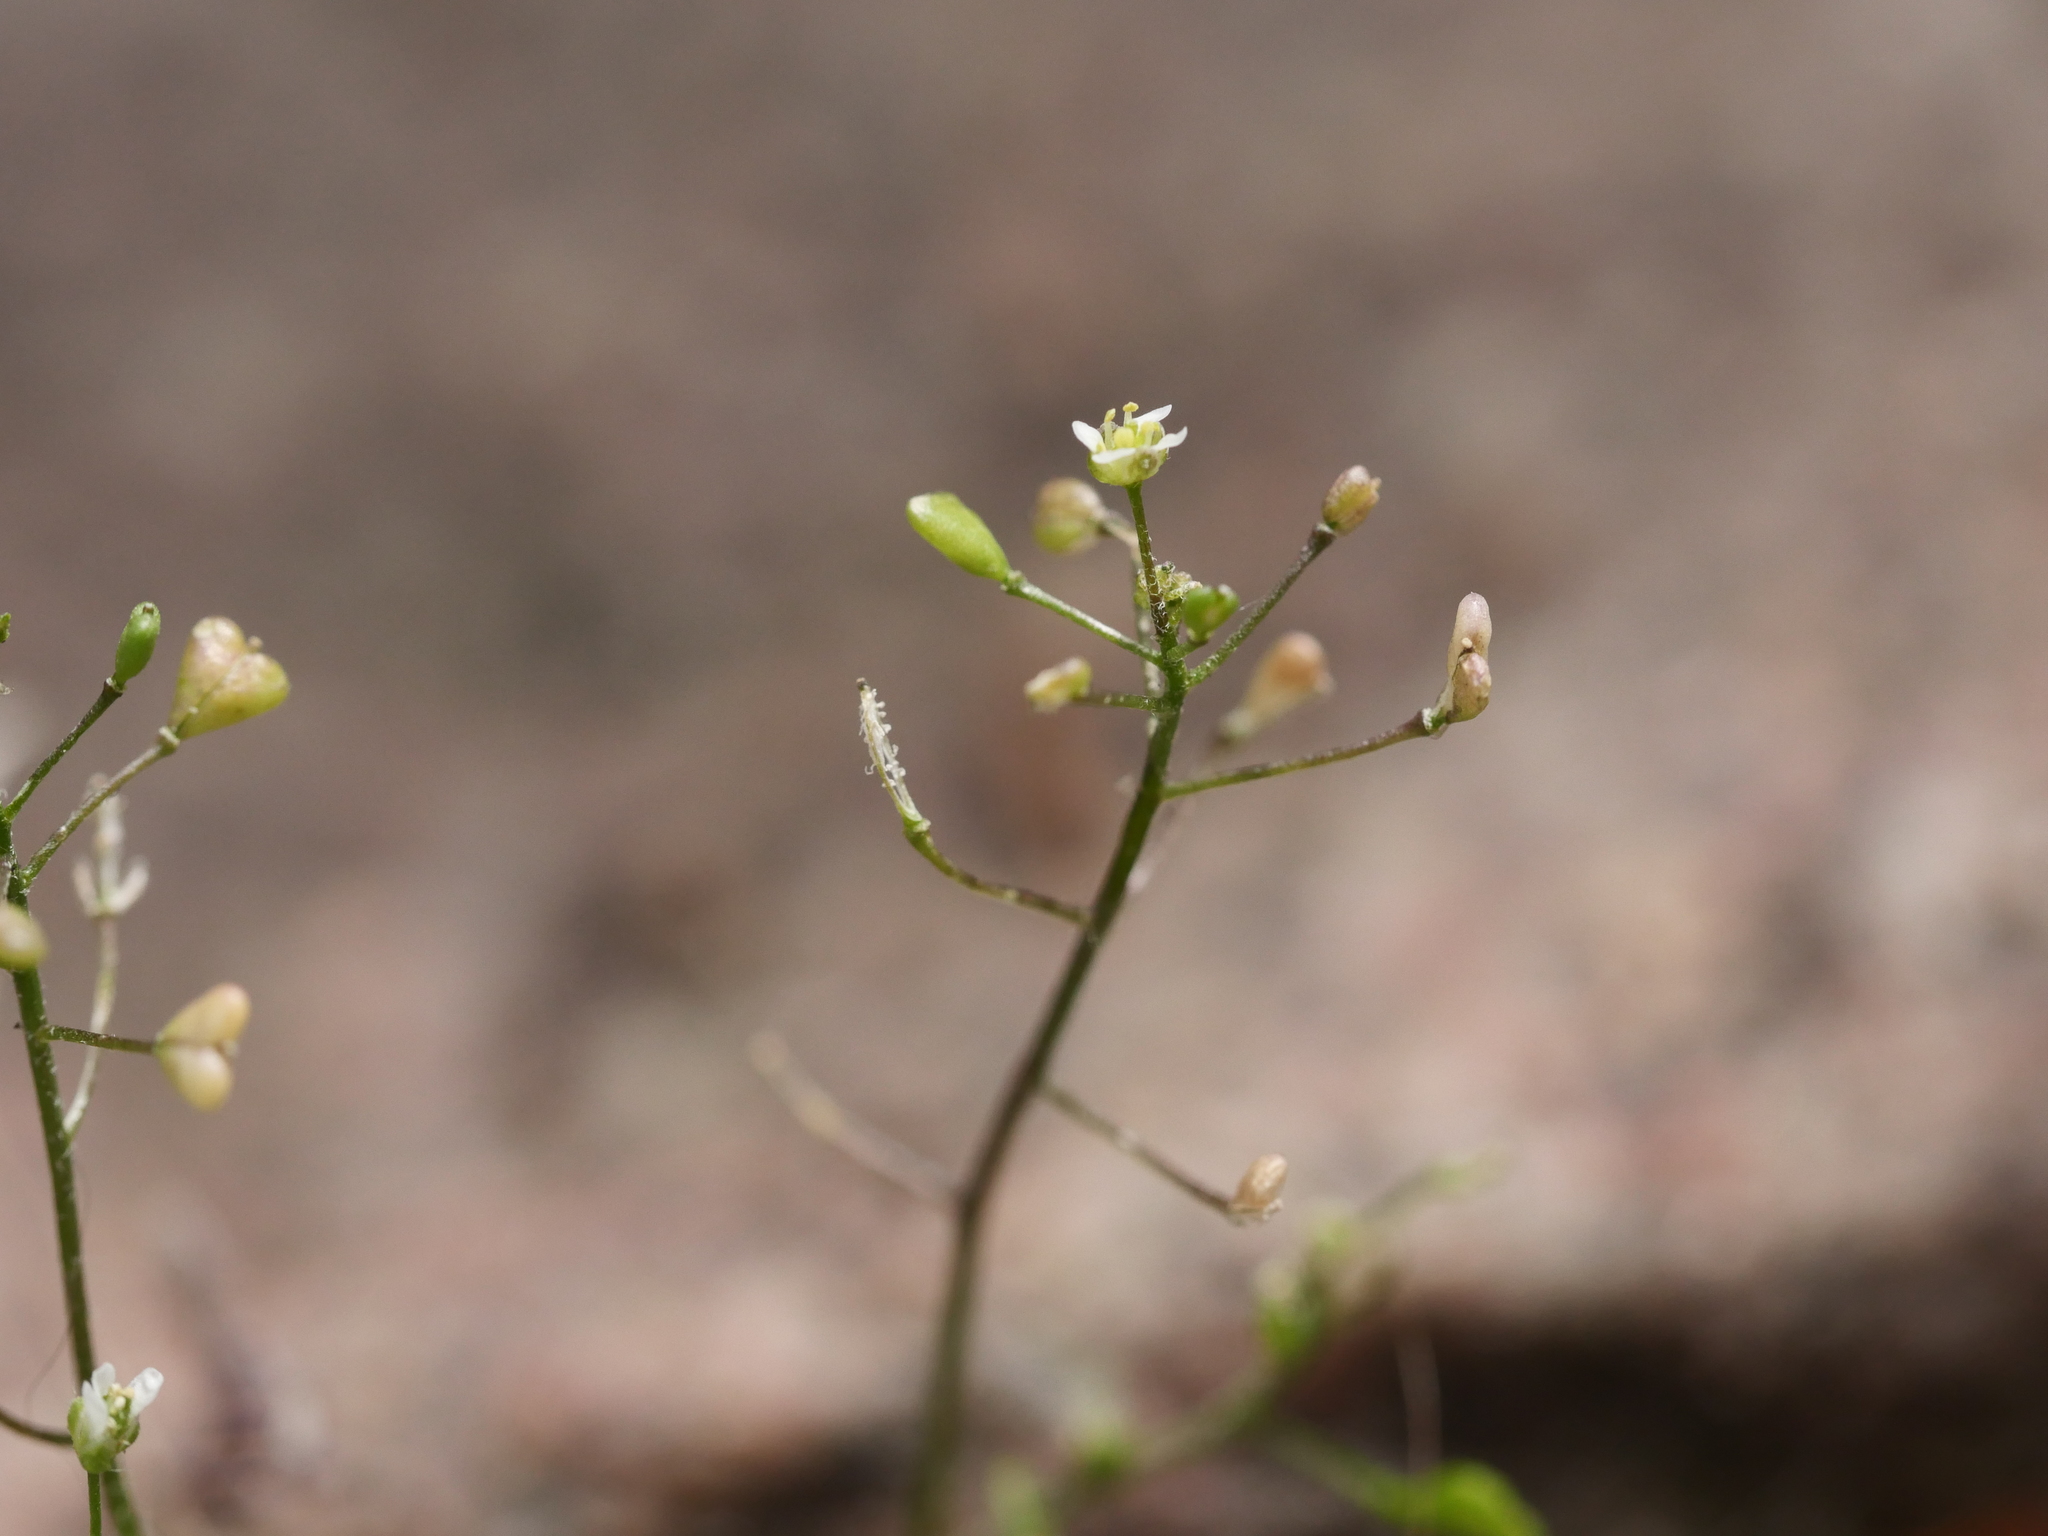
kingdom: Plantae
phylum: Tracheophyta
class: Magnoliopsida
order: Brassicales
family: Brassicaceae
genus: Draba
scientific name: Draba verna
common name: Spring draba
